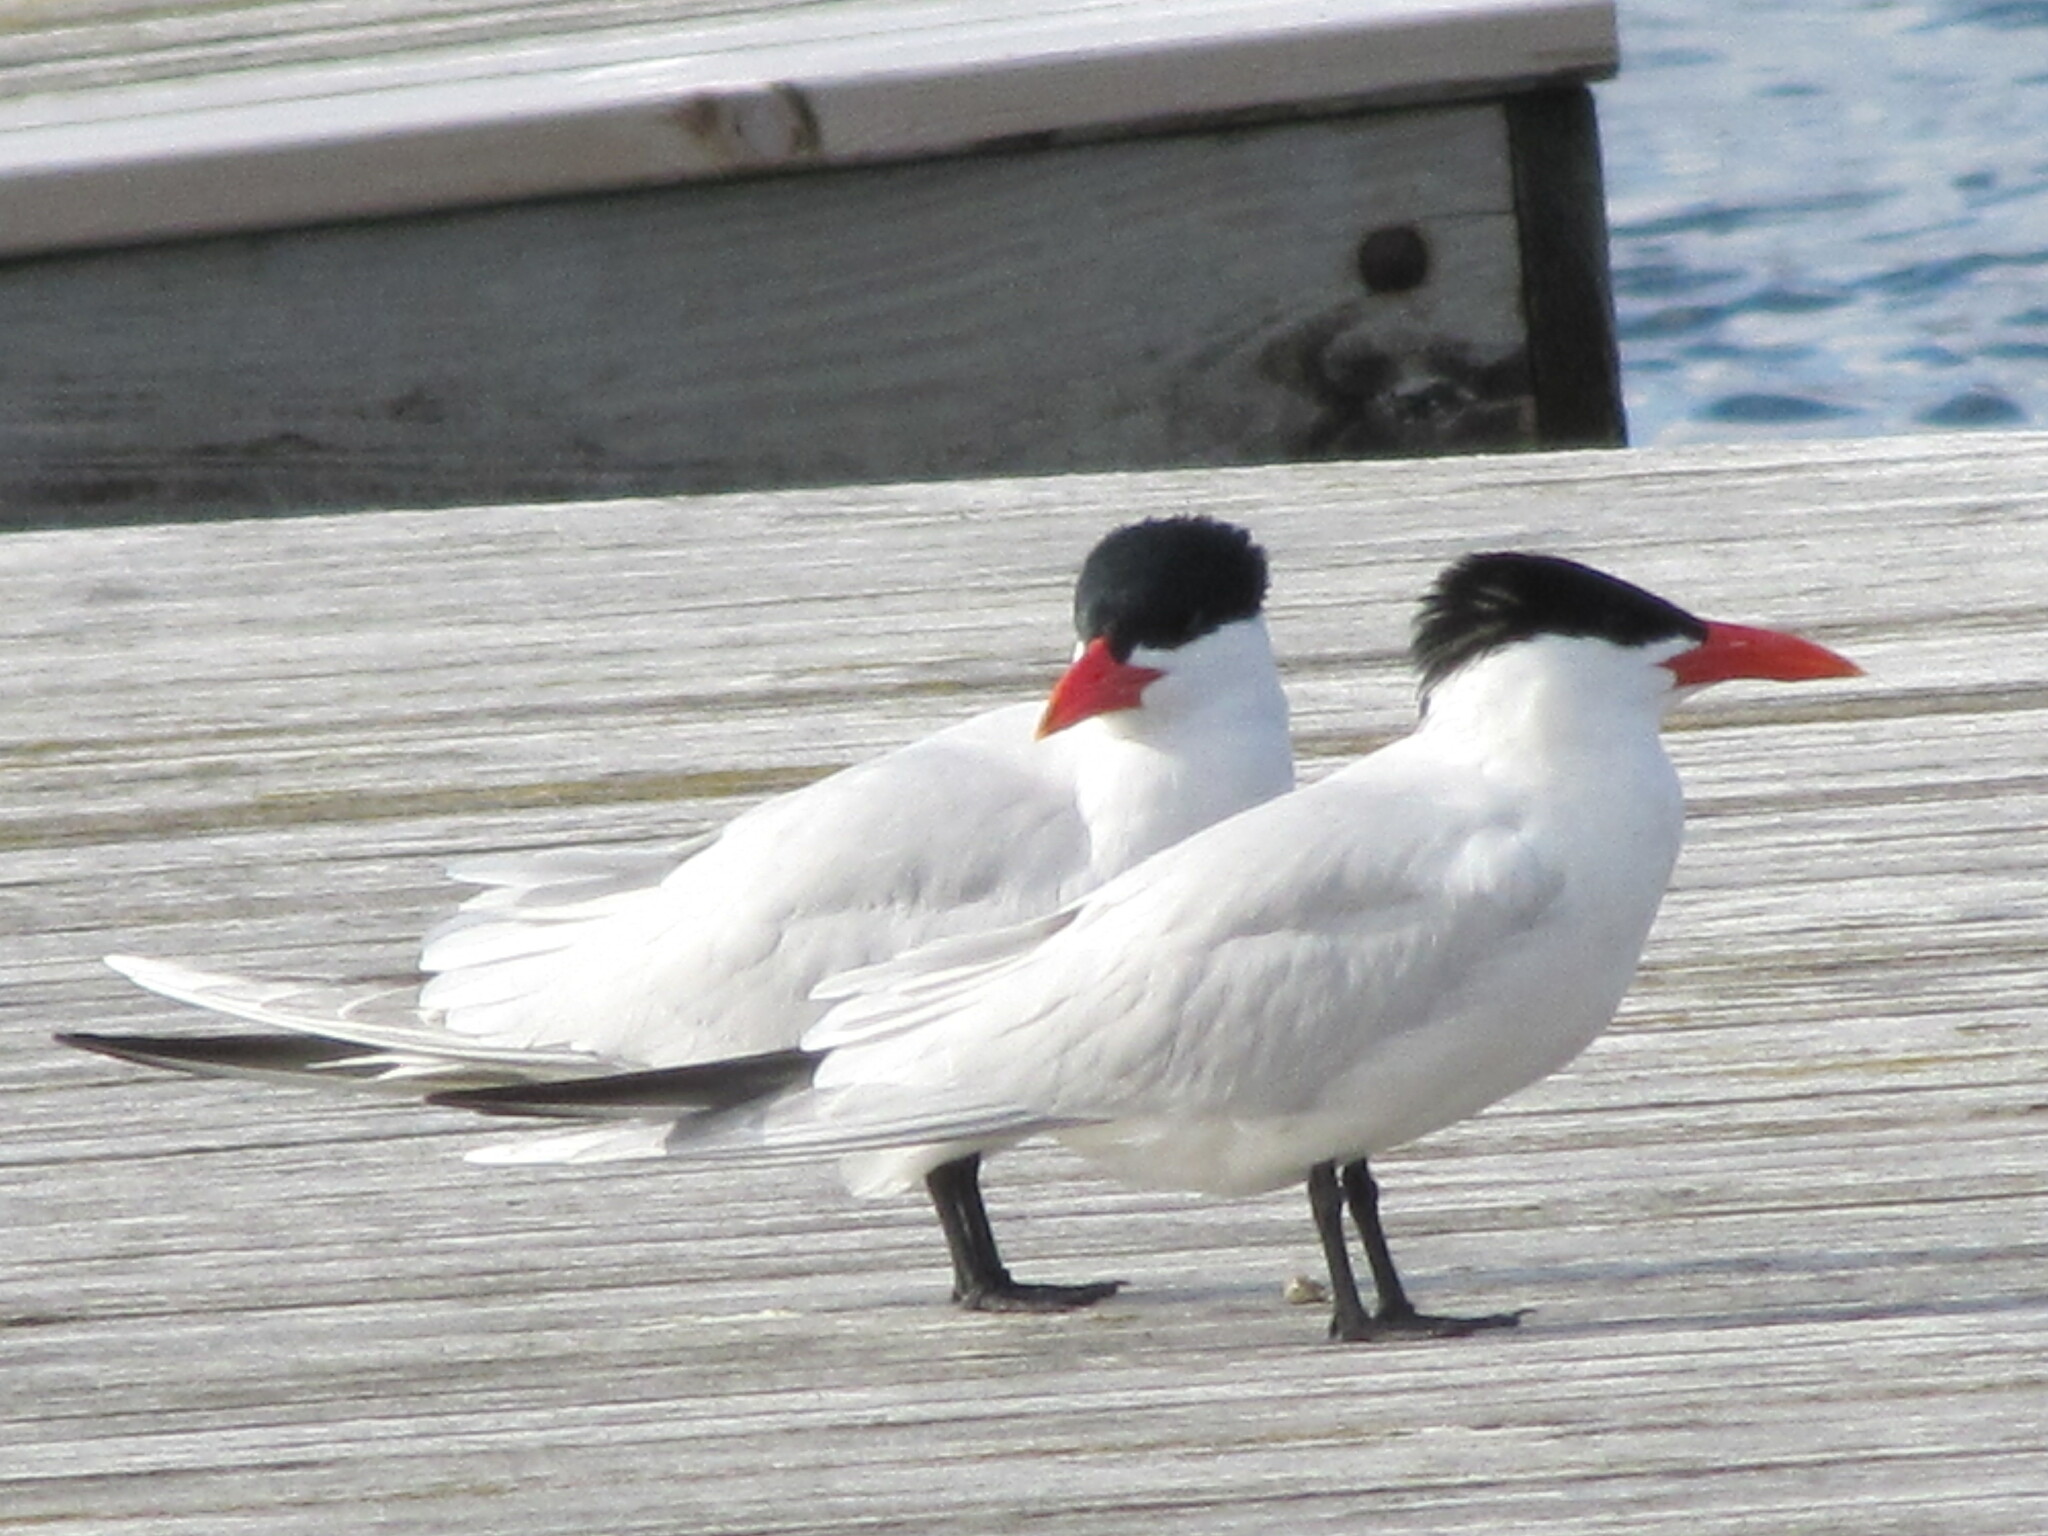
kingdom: Animalia
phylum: Chordata
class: Aves
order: Charadriiformes
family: Laridae
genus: Hydroprogne
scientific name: Hydroprogne caspia
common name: Caspian tern
